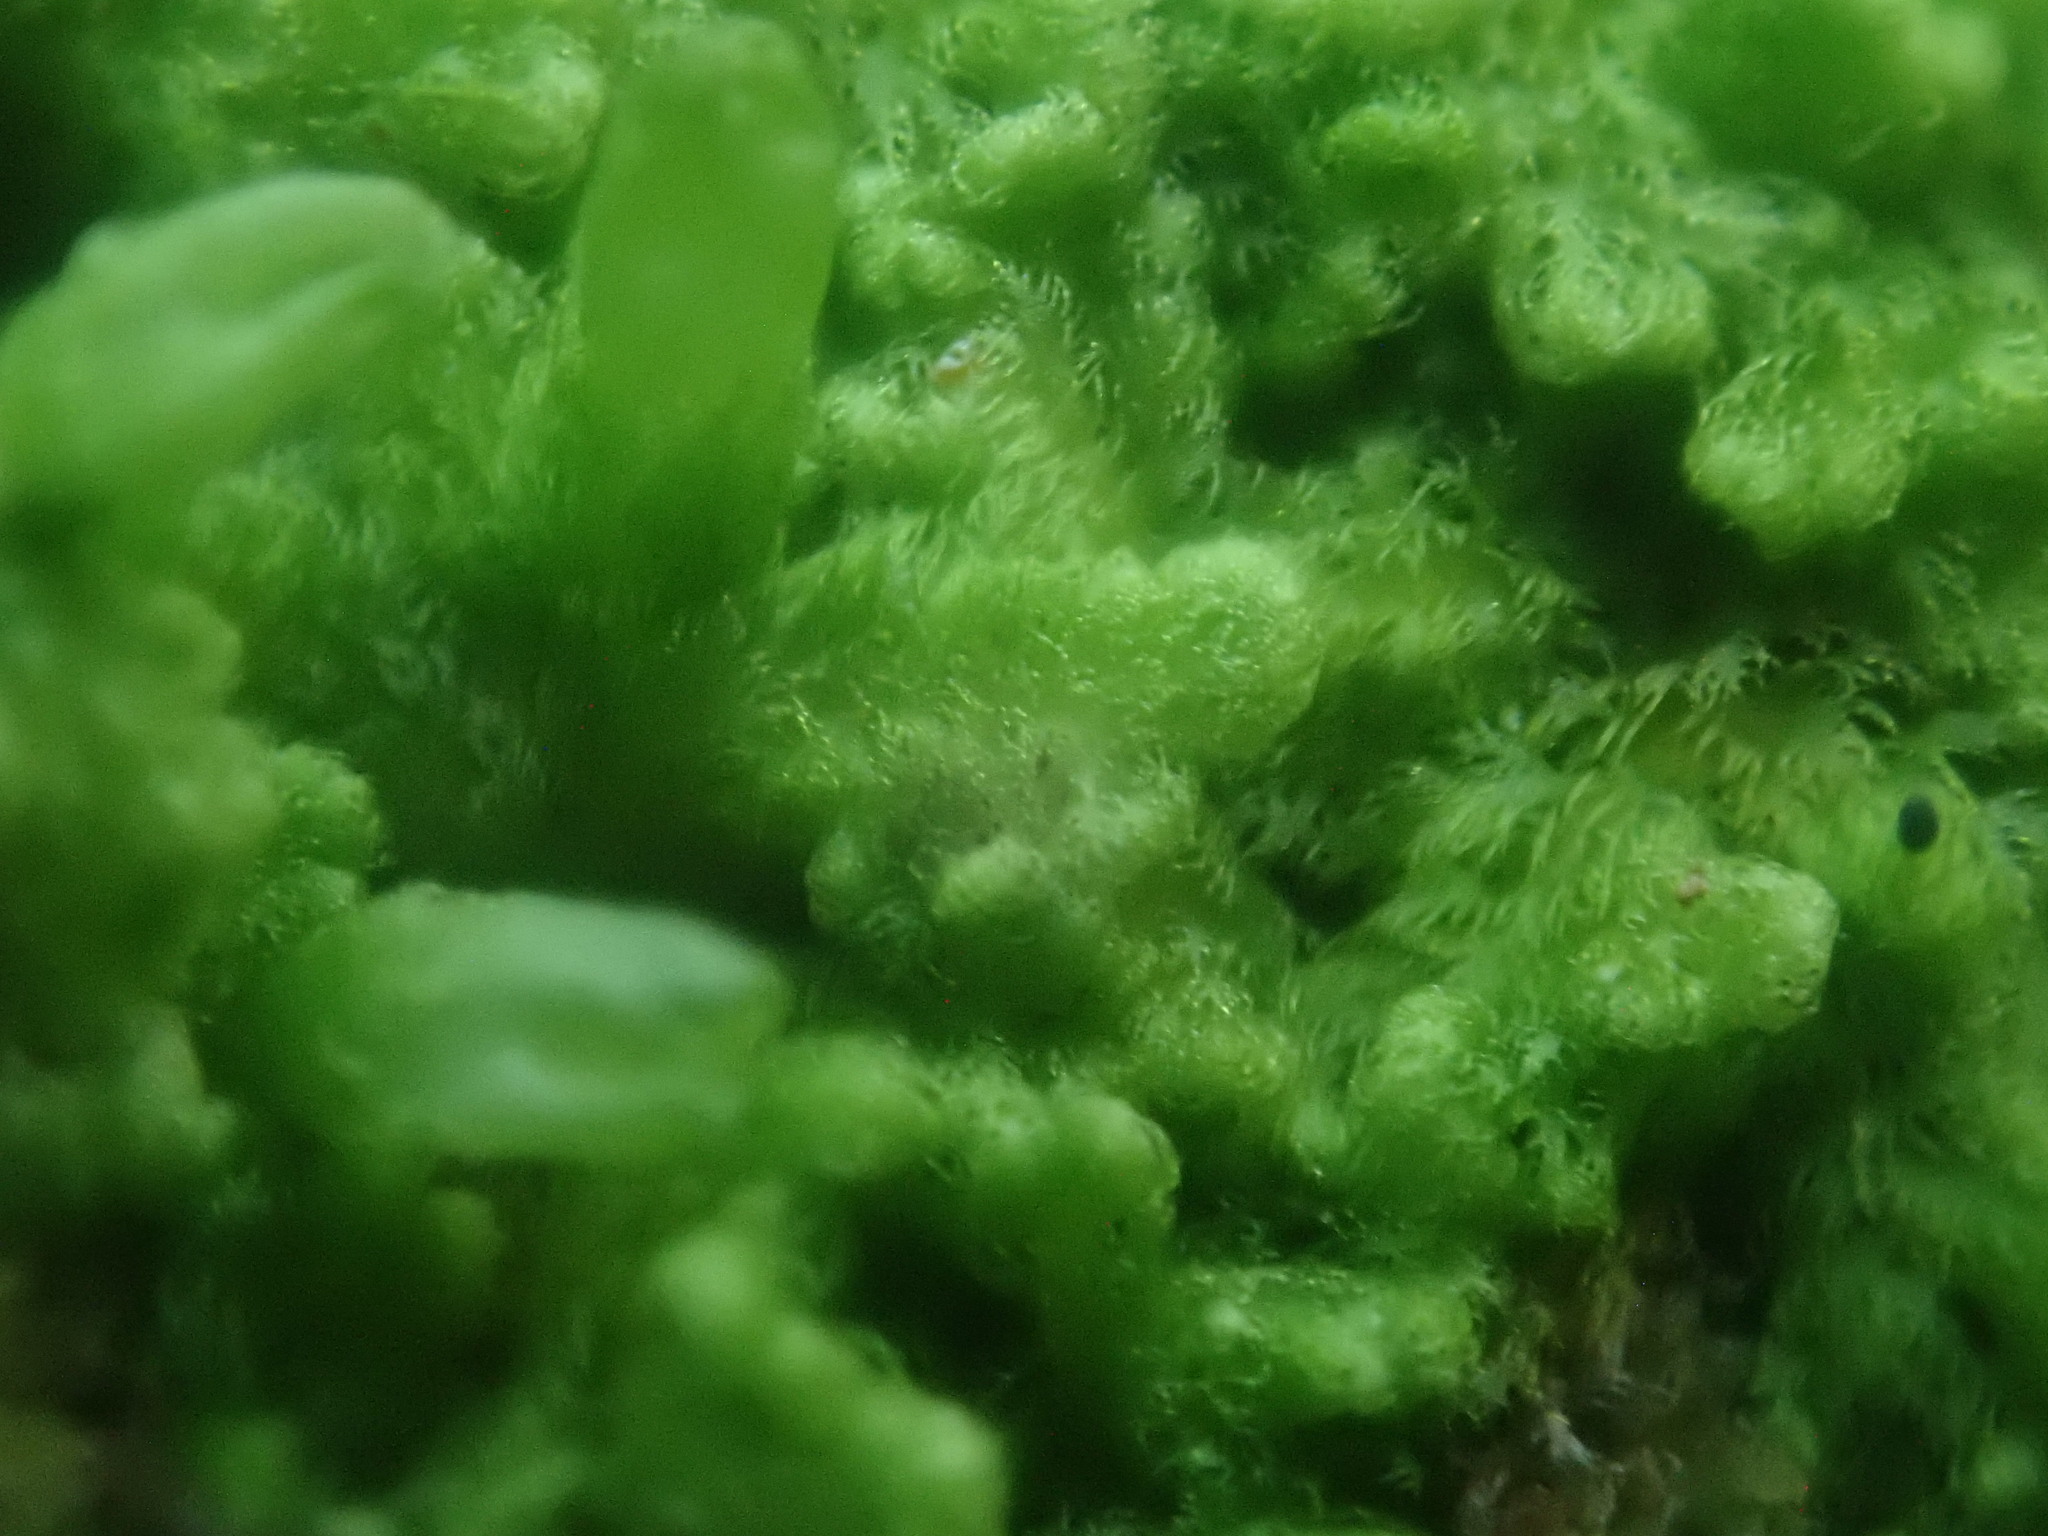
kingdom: Plantae
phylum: Marchantiophyta
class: Jungermanniopsida
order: Ptilidiales
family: Ptilidiaceae
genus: Ptilidium
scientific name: Ptilidium pulcherrimum
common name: Tree fringewort
